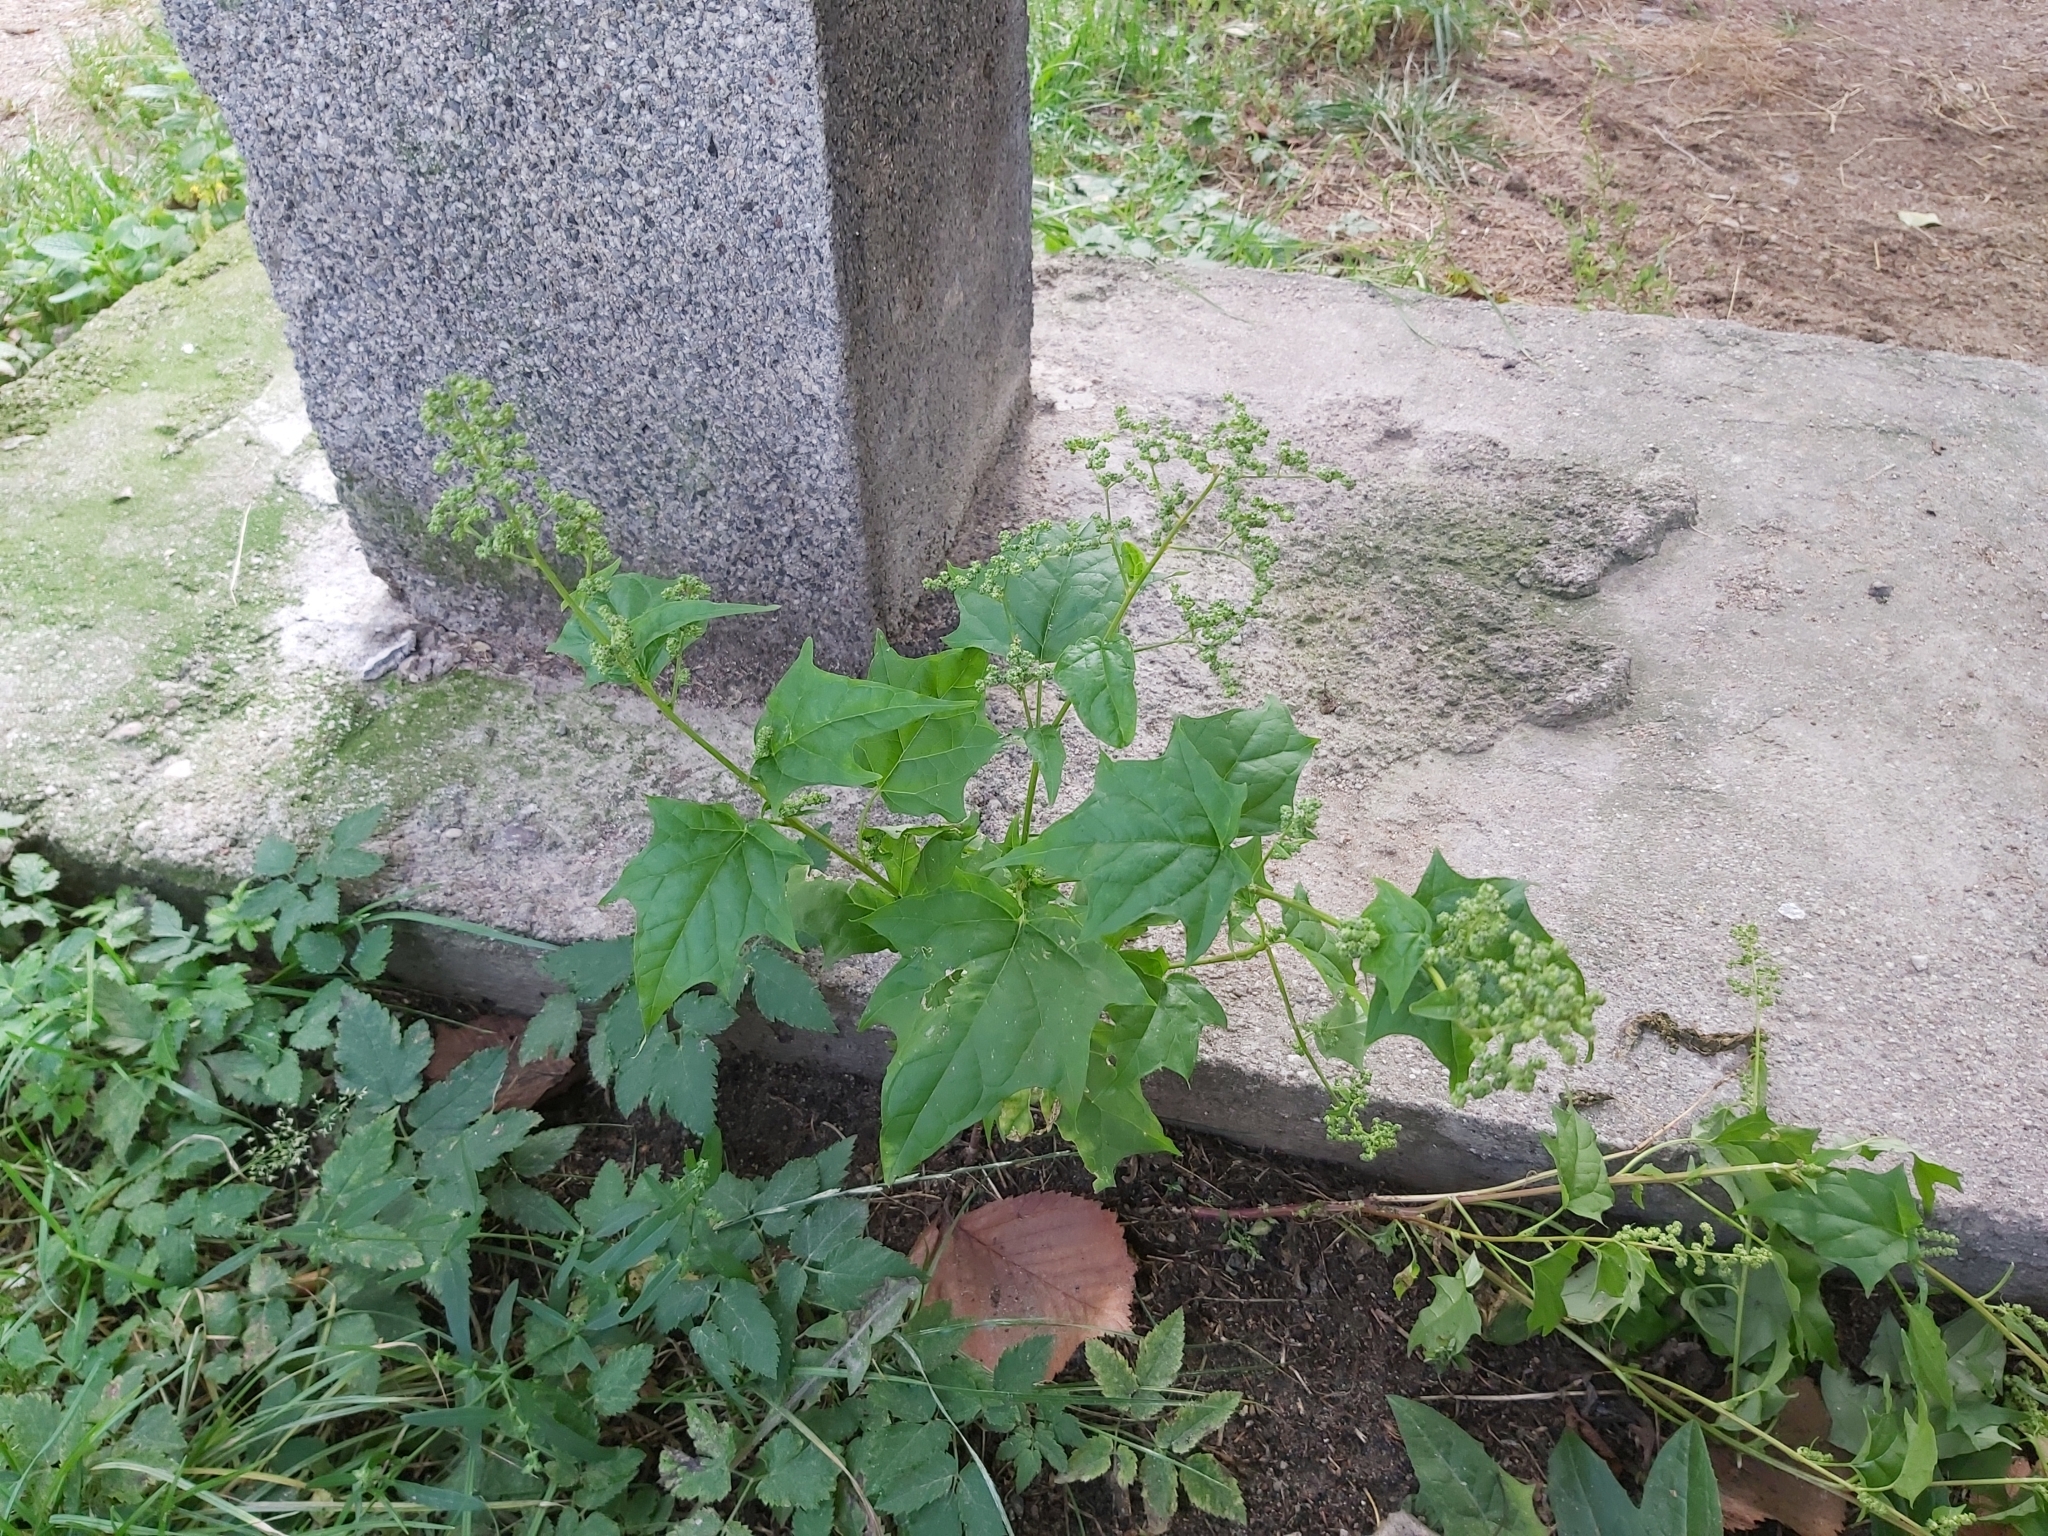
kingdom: Plantae
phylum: Tracheophyta
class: Magnoliopsida
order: Caryophyllales
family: Amaranthaceae
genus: Chenopodiastrum
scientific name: Chenopodiastrum hybridum
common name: Mapleleaf goosefoot
